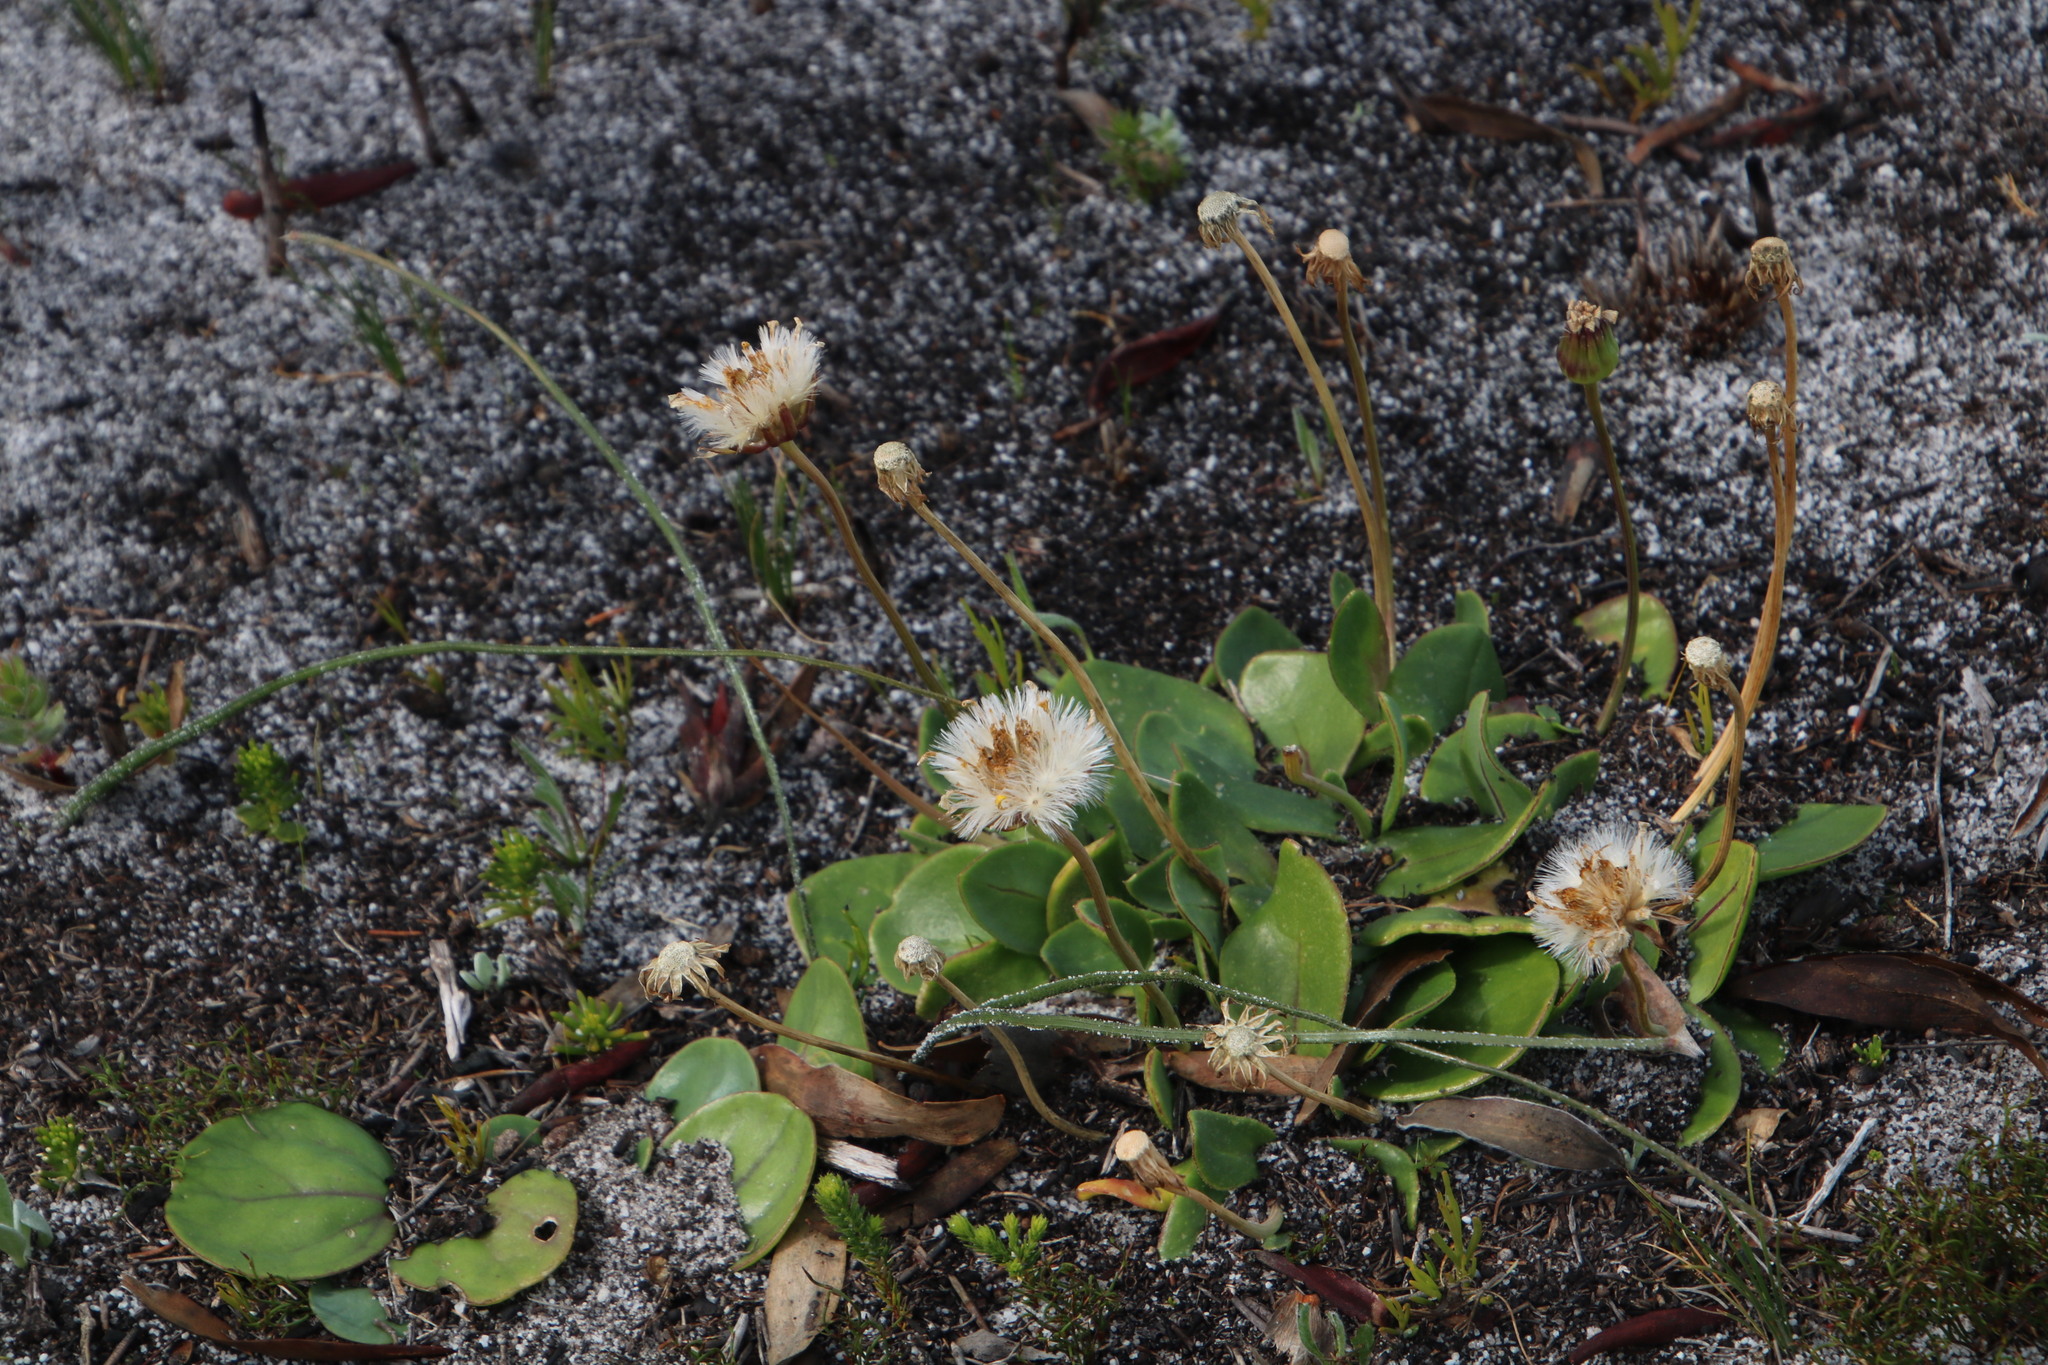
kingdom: Plantae
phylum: Tracheophyta
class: Magnoliopsida
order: Asterales
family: Asteraceae
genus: Othonna
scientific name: Othonna bulbosa
